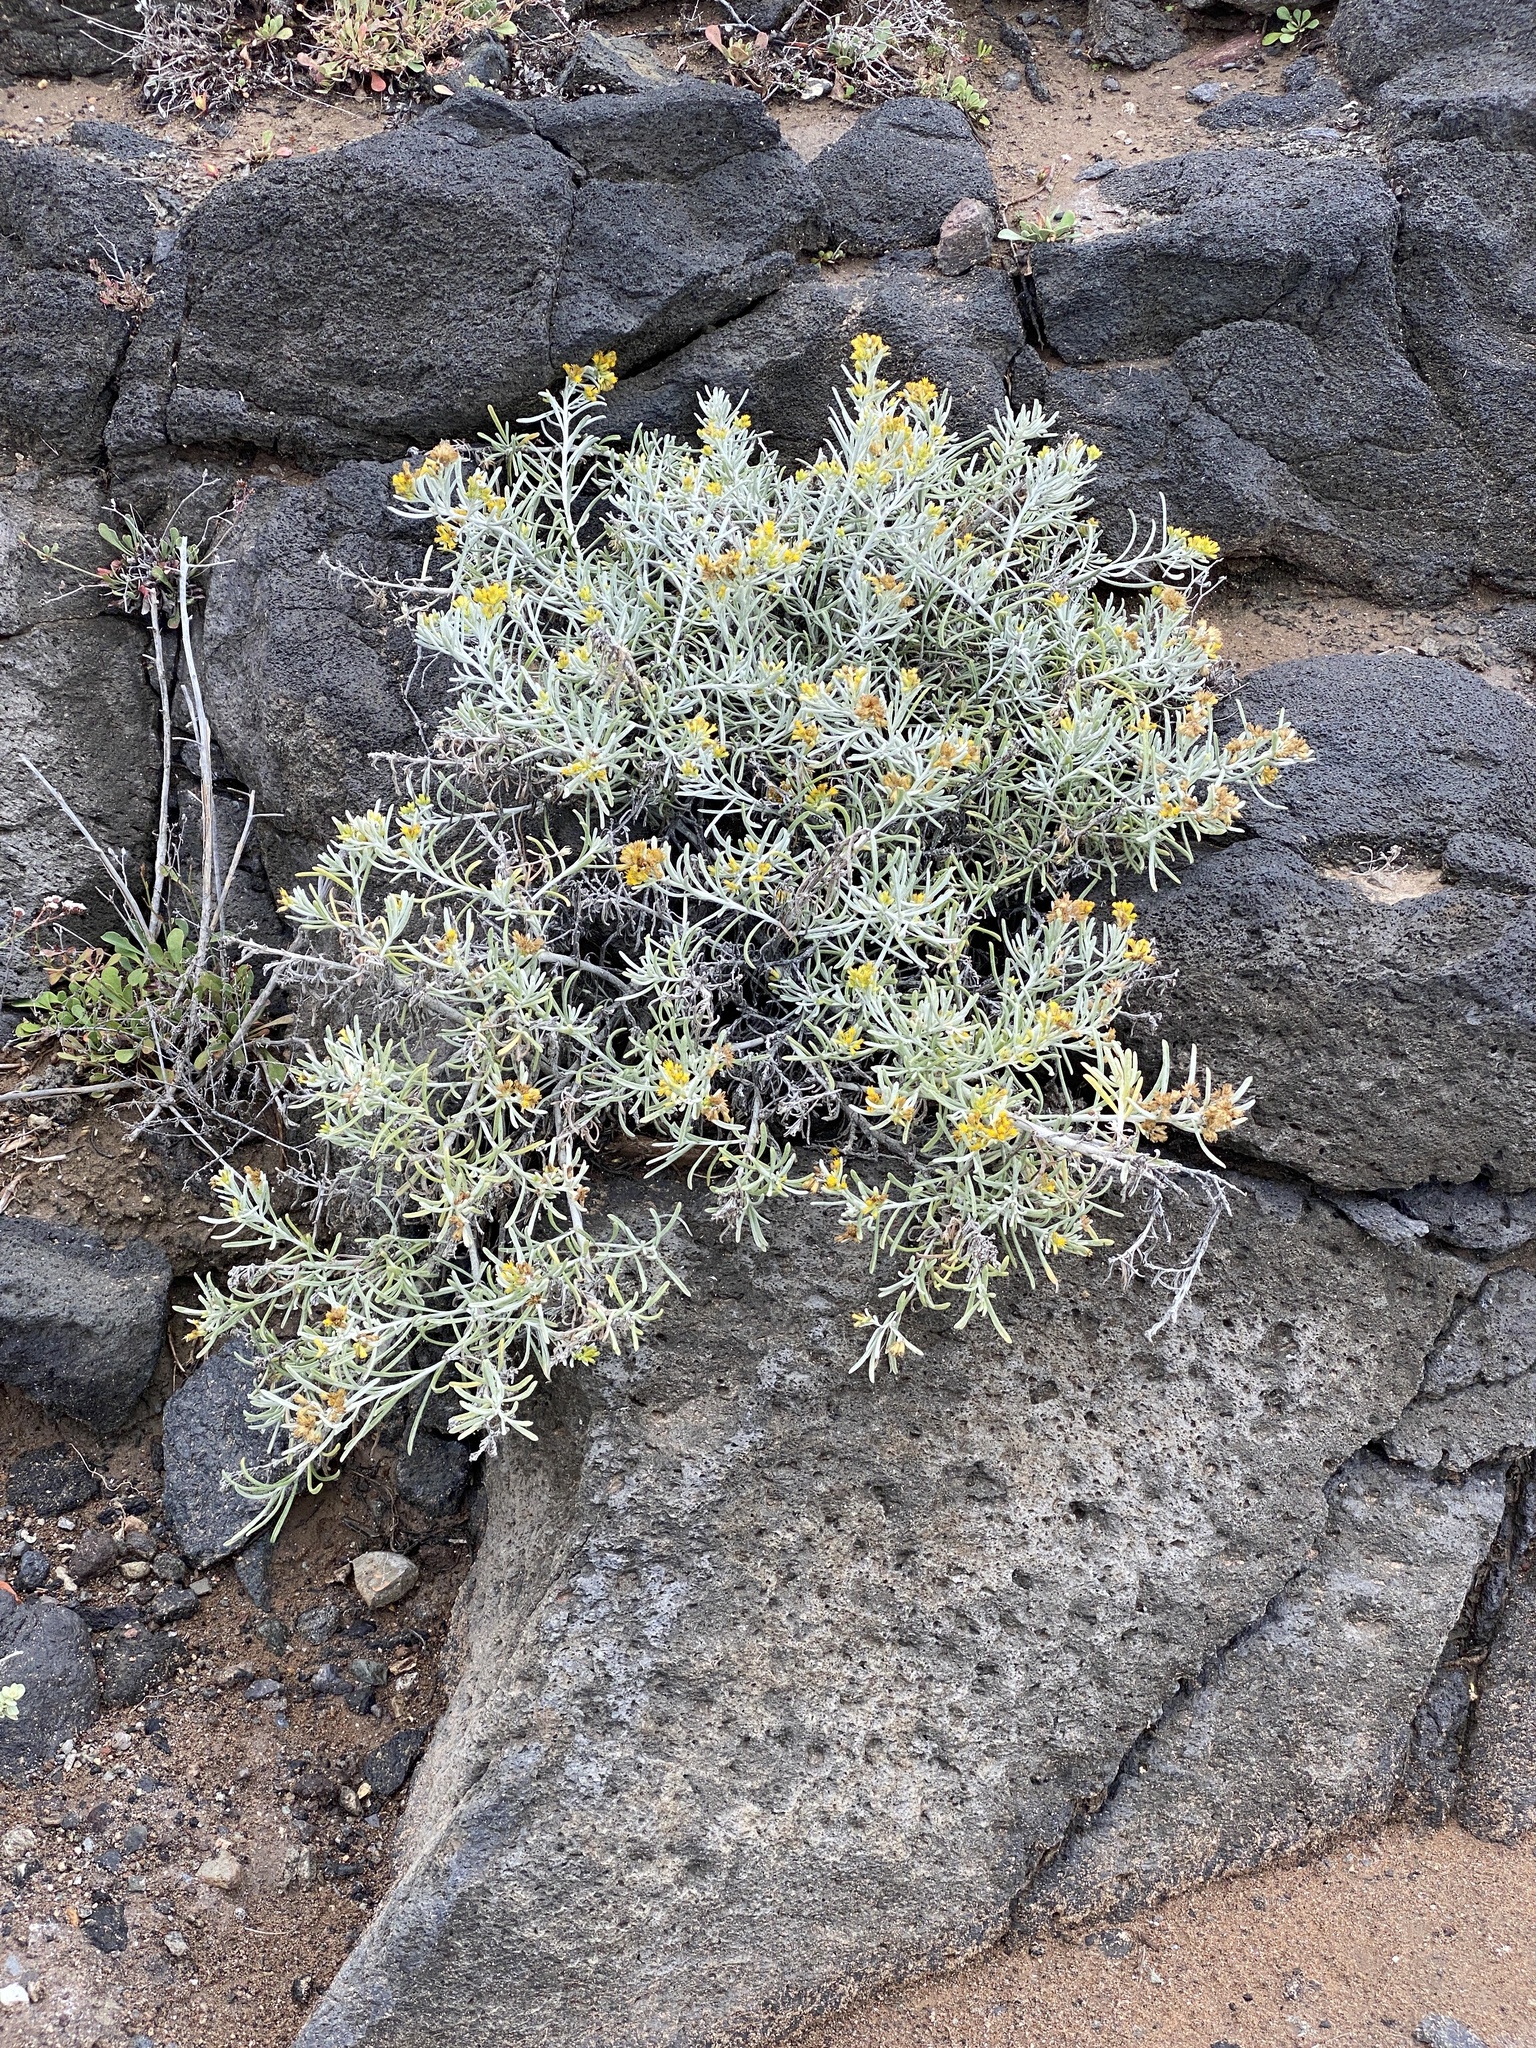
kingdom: Plantae
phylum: Tracheophyta
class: Magnoliopsida
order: Asterales
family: Asteraceae
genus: Schizogyne
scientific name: Schizogyne sericea
